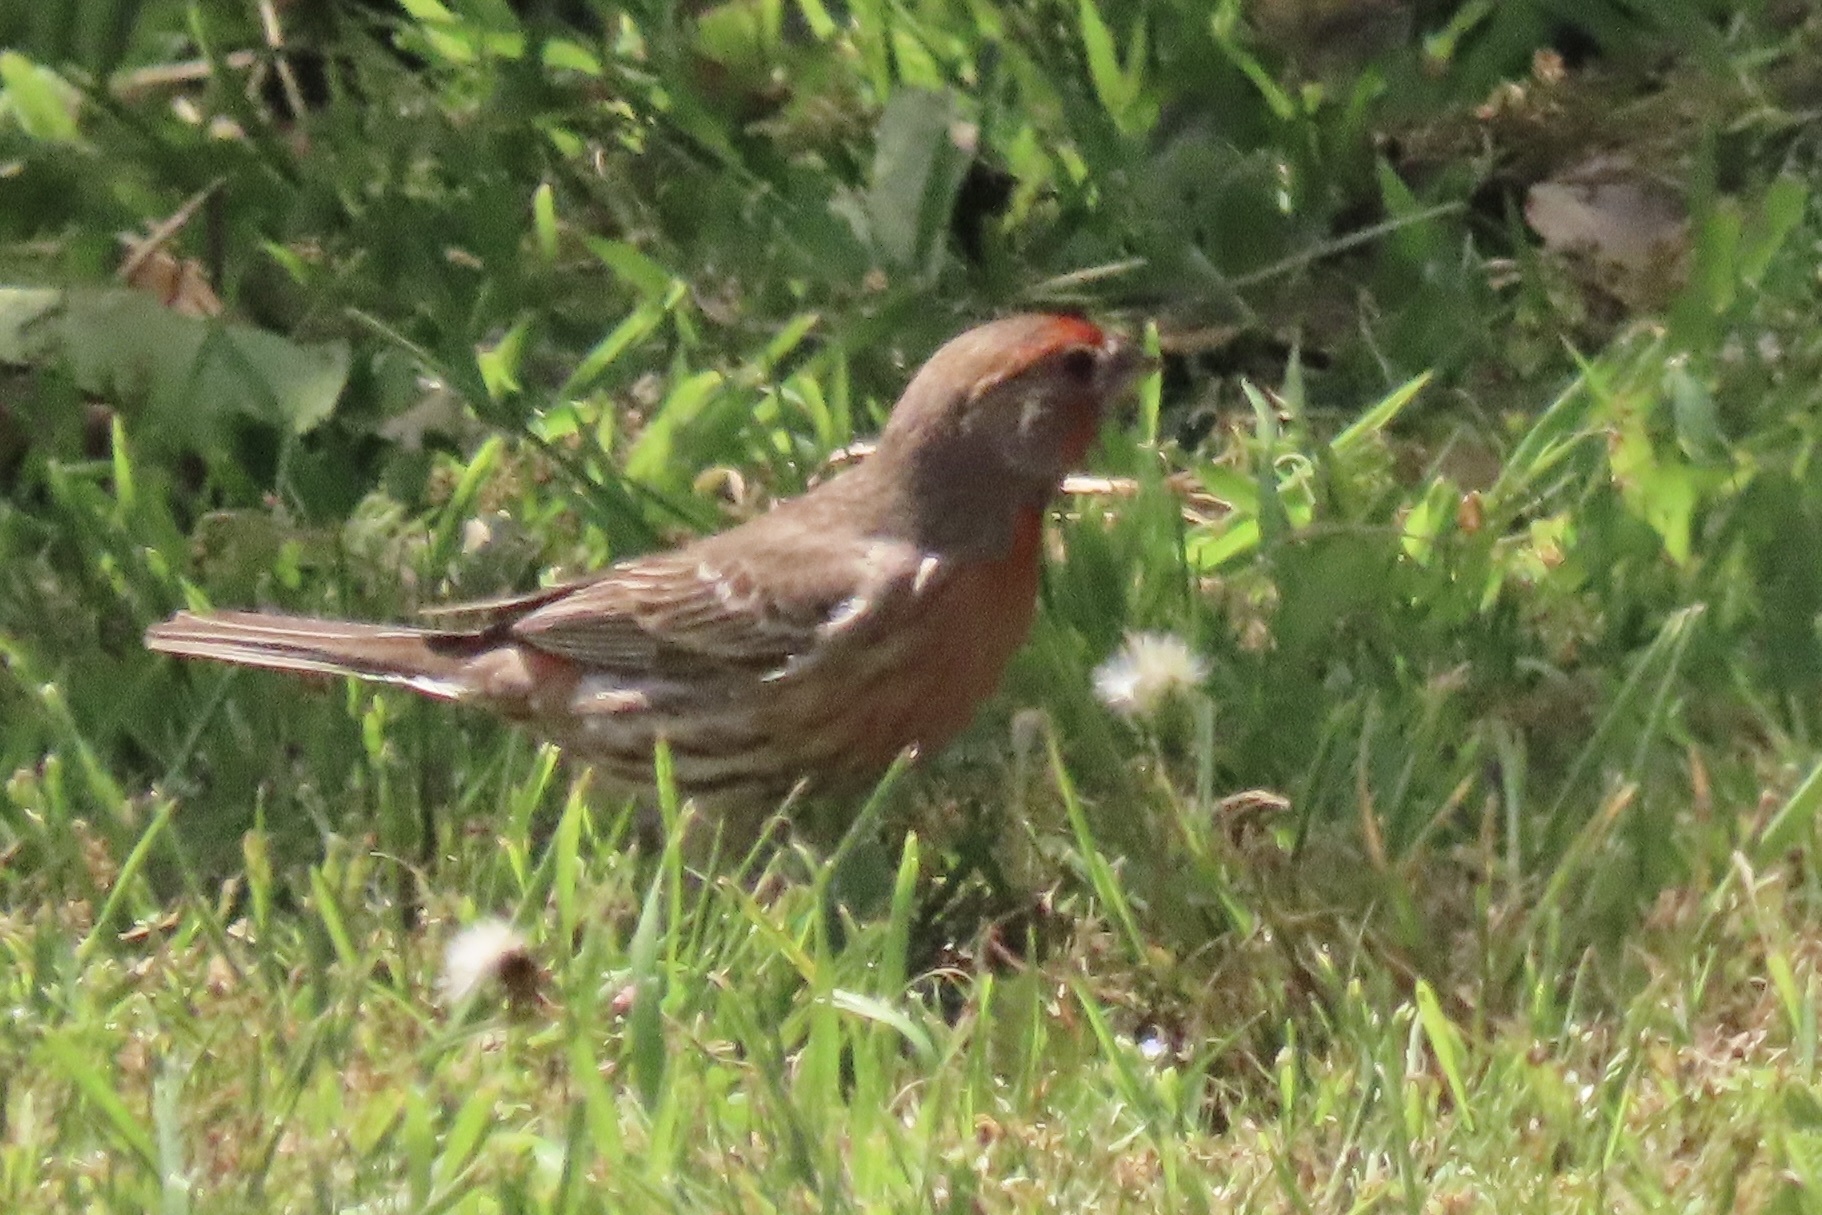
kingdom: Animalia
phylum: Chordata
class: Aves
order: Passeriformes
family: Fringillidae
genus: Haemorhous
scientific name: Haemorhous mexicanus
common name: House finch
